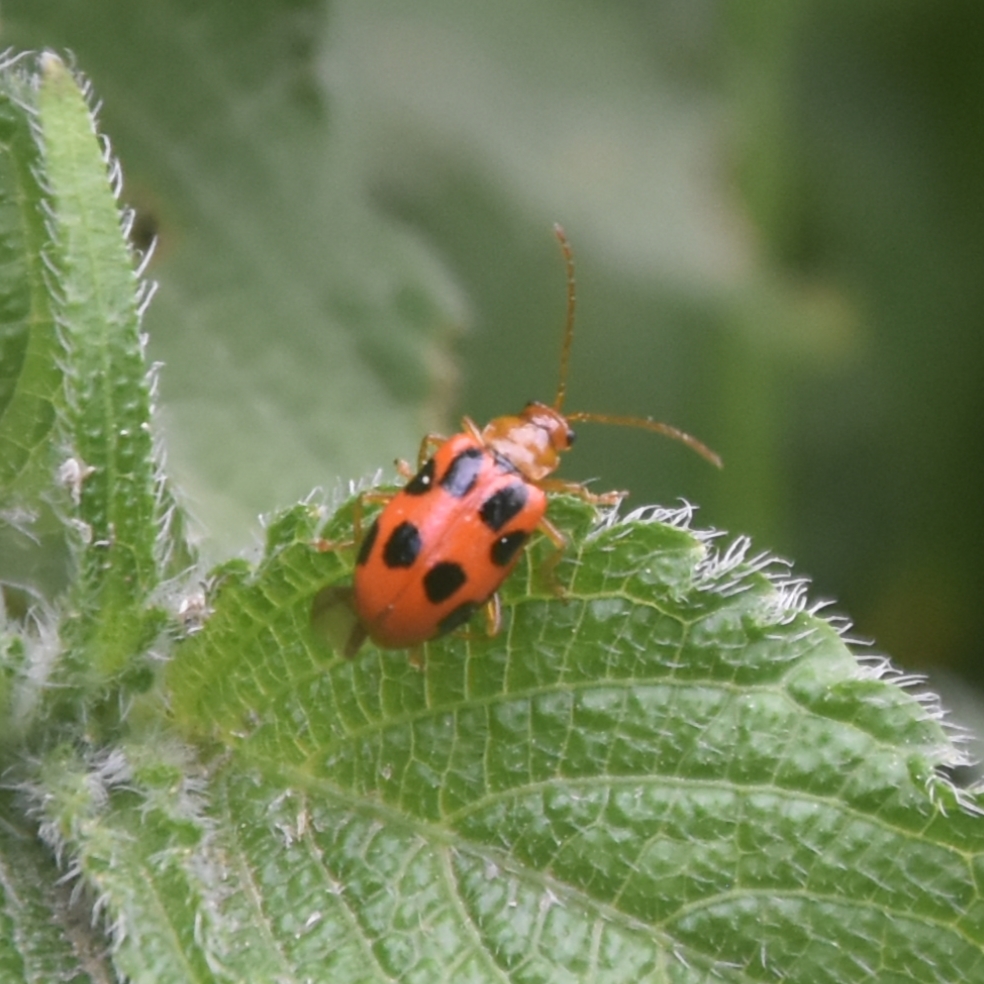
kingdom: Animalia
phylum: Arthropoda
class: Insecta
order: Coleoptera
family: Chrysomelidae
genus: Paridea
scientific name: Paridea
